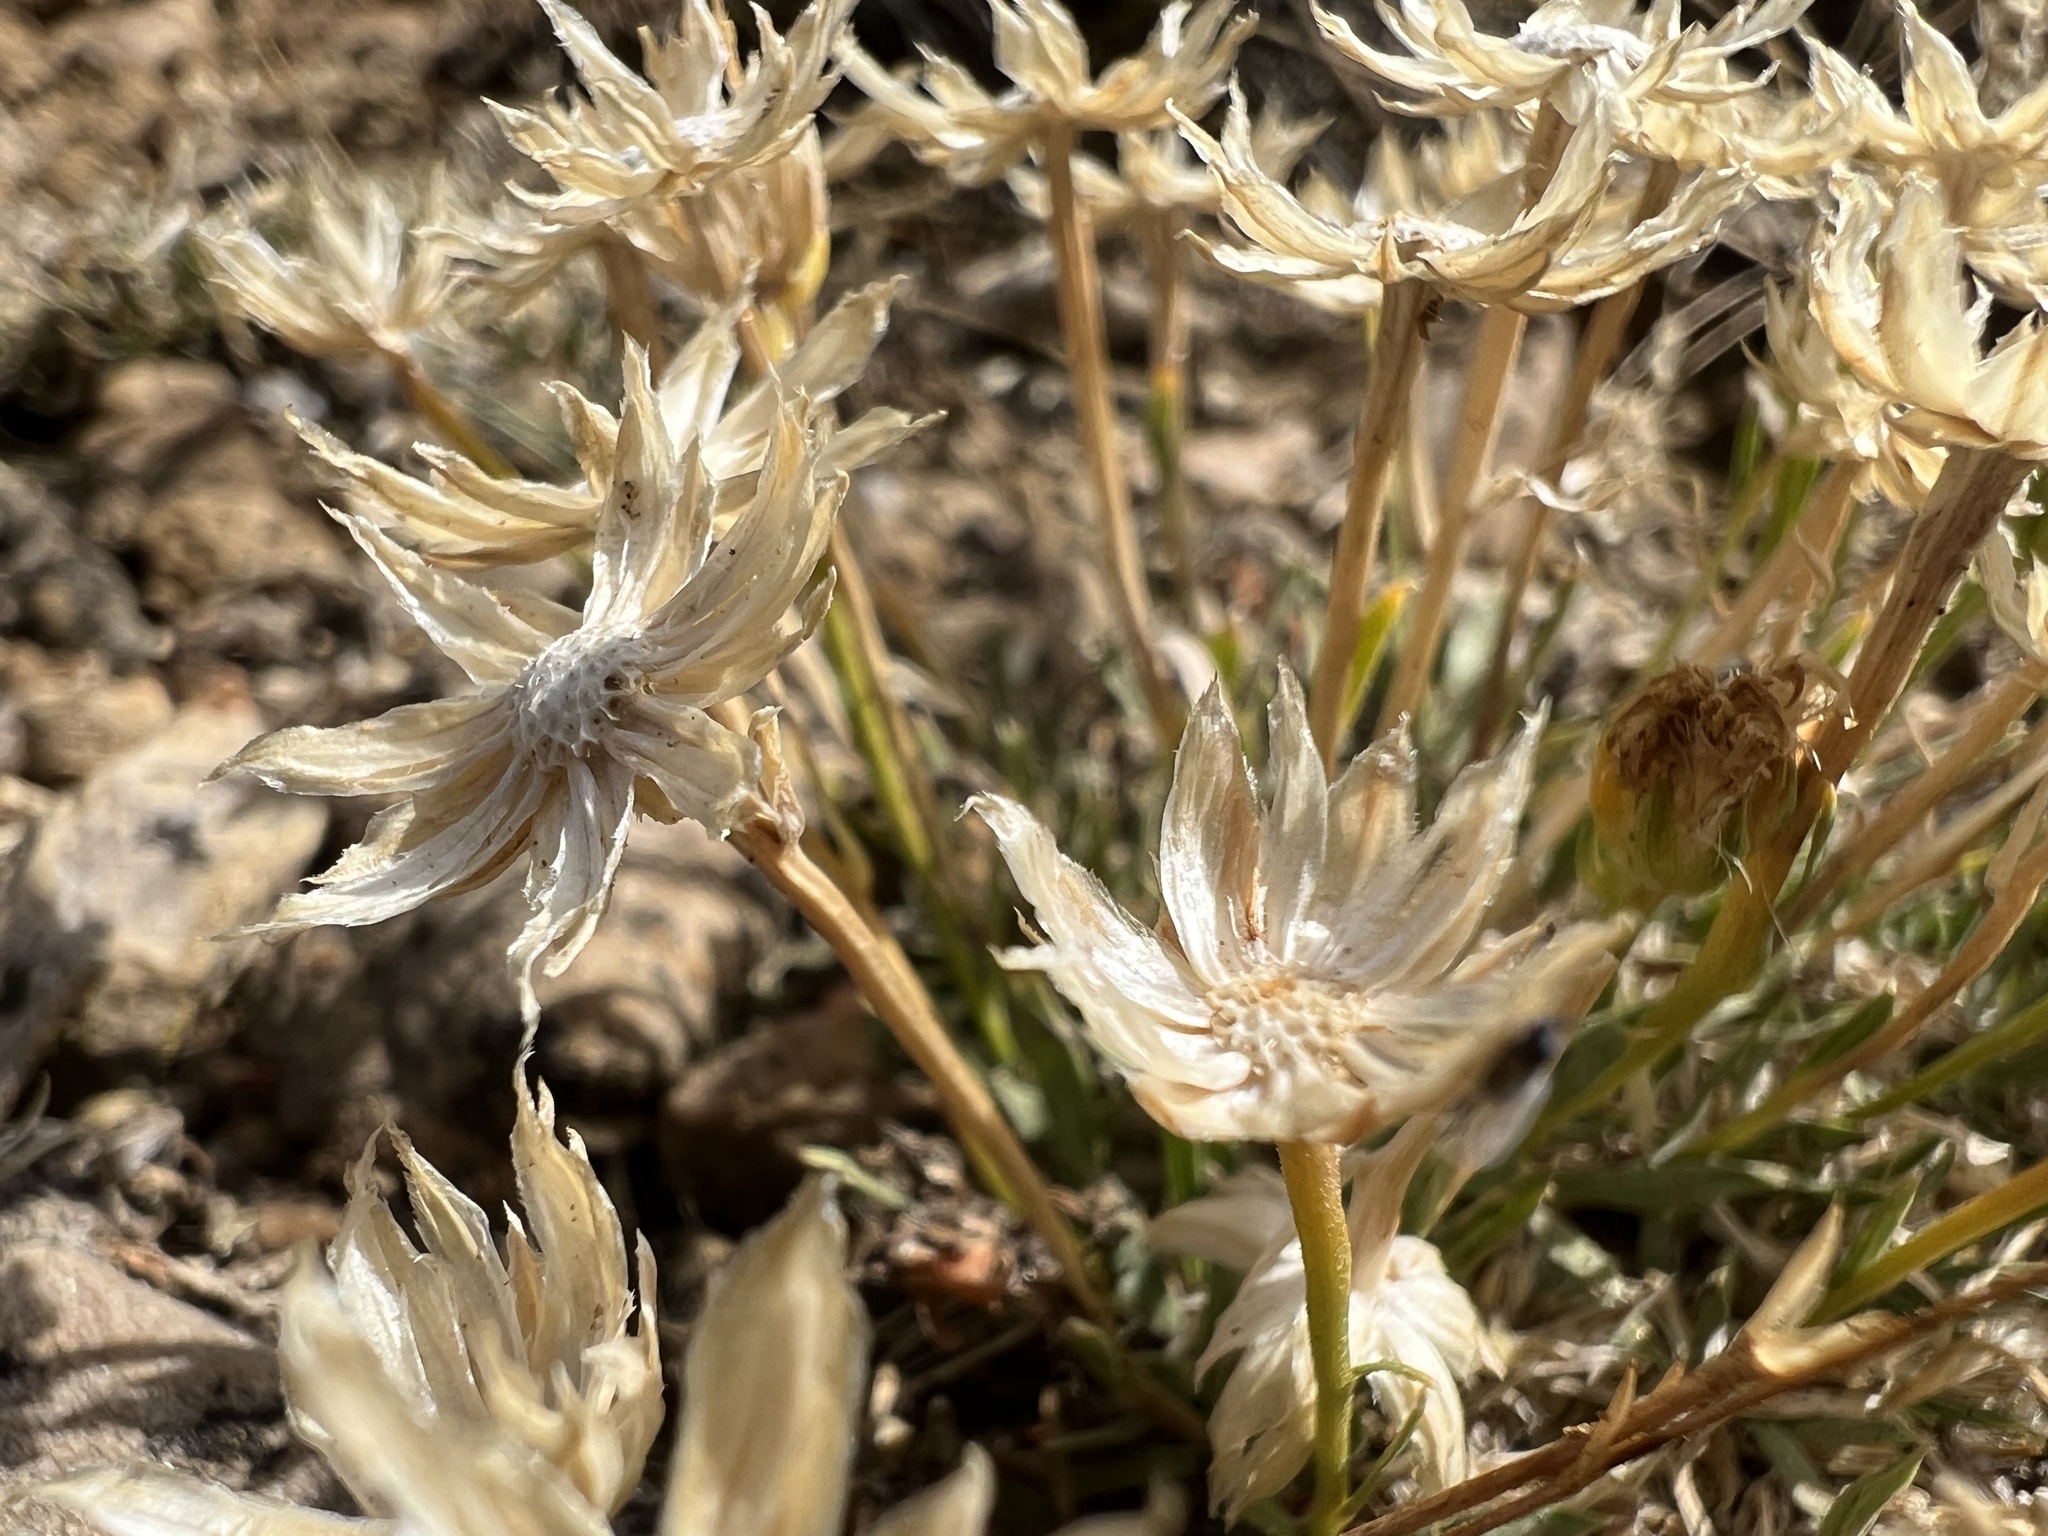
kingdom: Plantae
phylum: Tracheophyta
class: Magnoliopsida
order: Asterales
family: Asteraceae
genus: Stenotus
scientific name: Stenotus acaulis
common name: Stemless goldenweed
